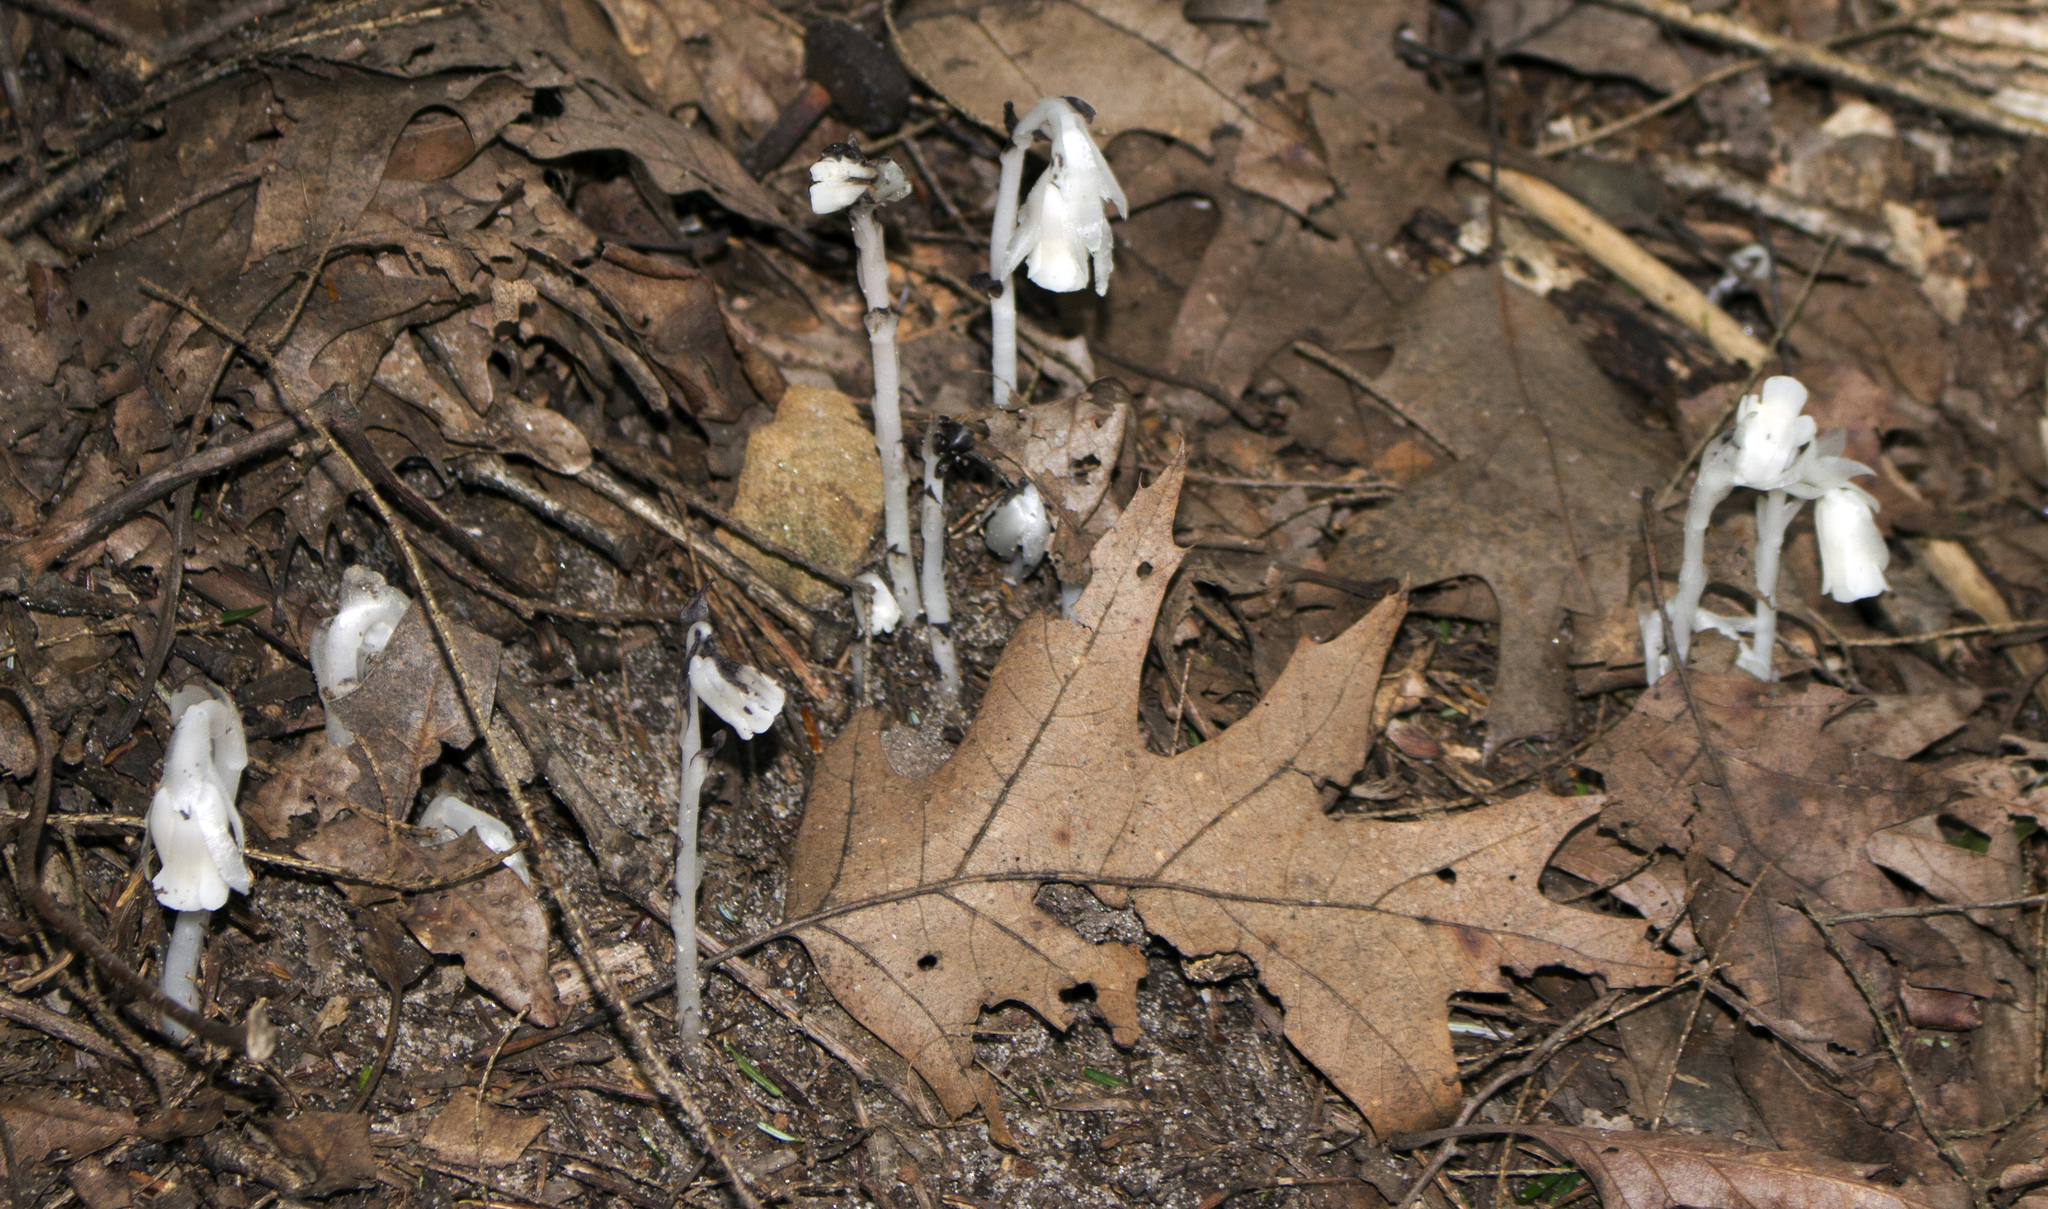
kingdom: Plantae
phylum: Tracheophyta
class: Magnoliopsida
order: Ericales
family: Ericaceae
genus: Monotropa
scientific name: Monotropa uniflora
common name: Convulsion root
